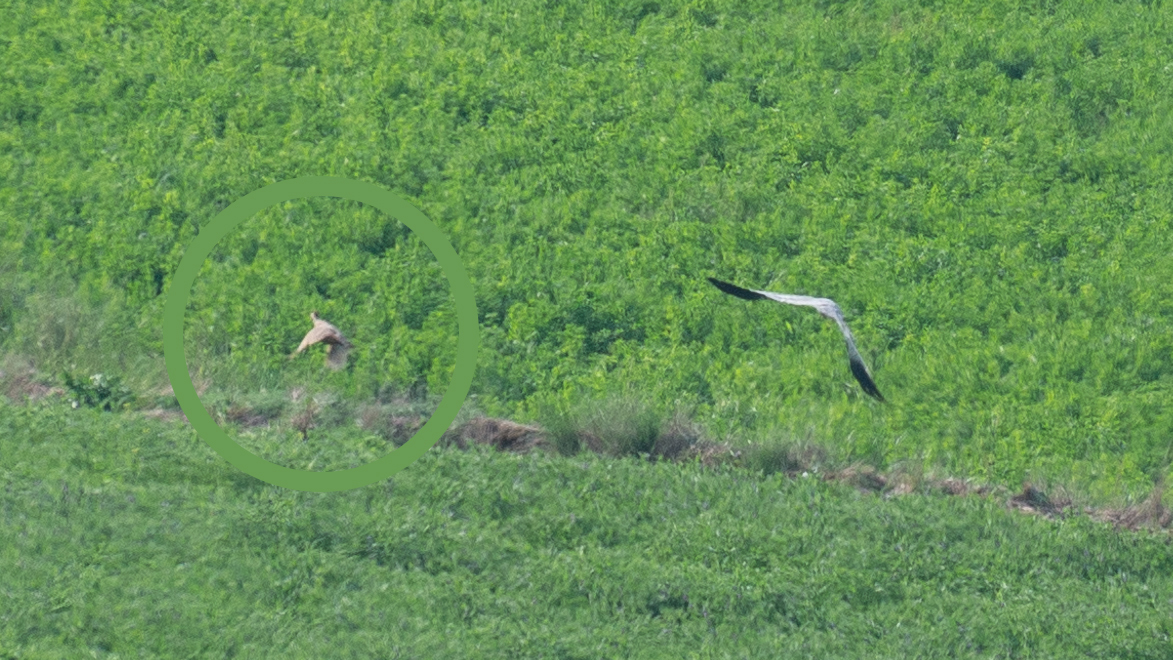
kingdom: Animalia
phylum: Chordata
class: Aves
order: Galliformes
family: Phasianidae
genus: Alectoris
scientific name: Alectoris rufa
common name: Red-legged partridge
